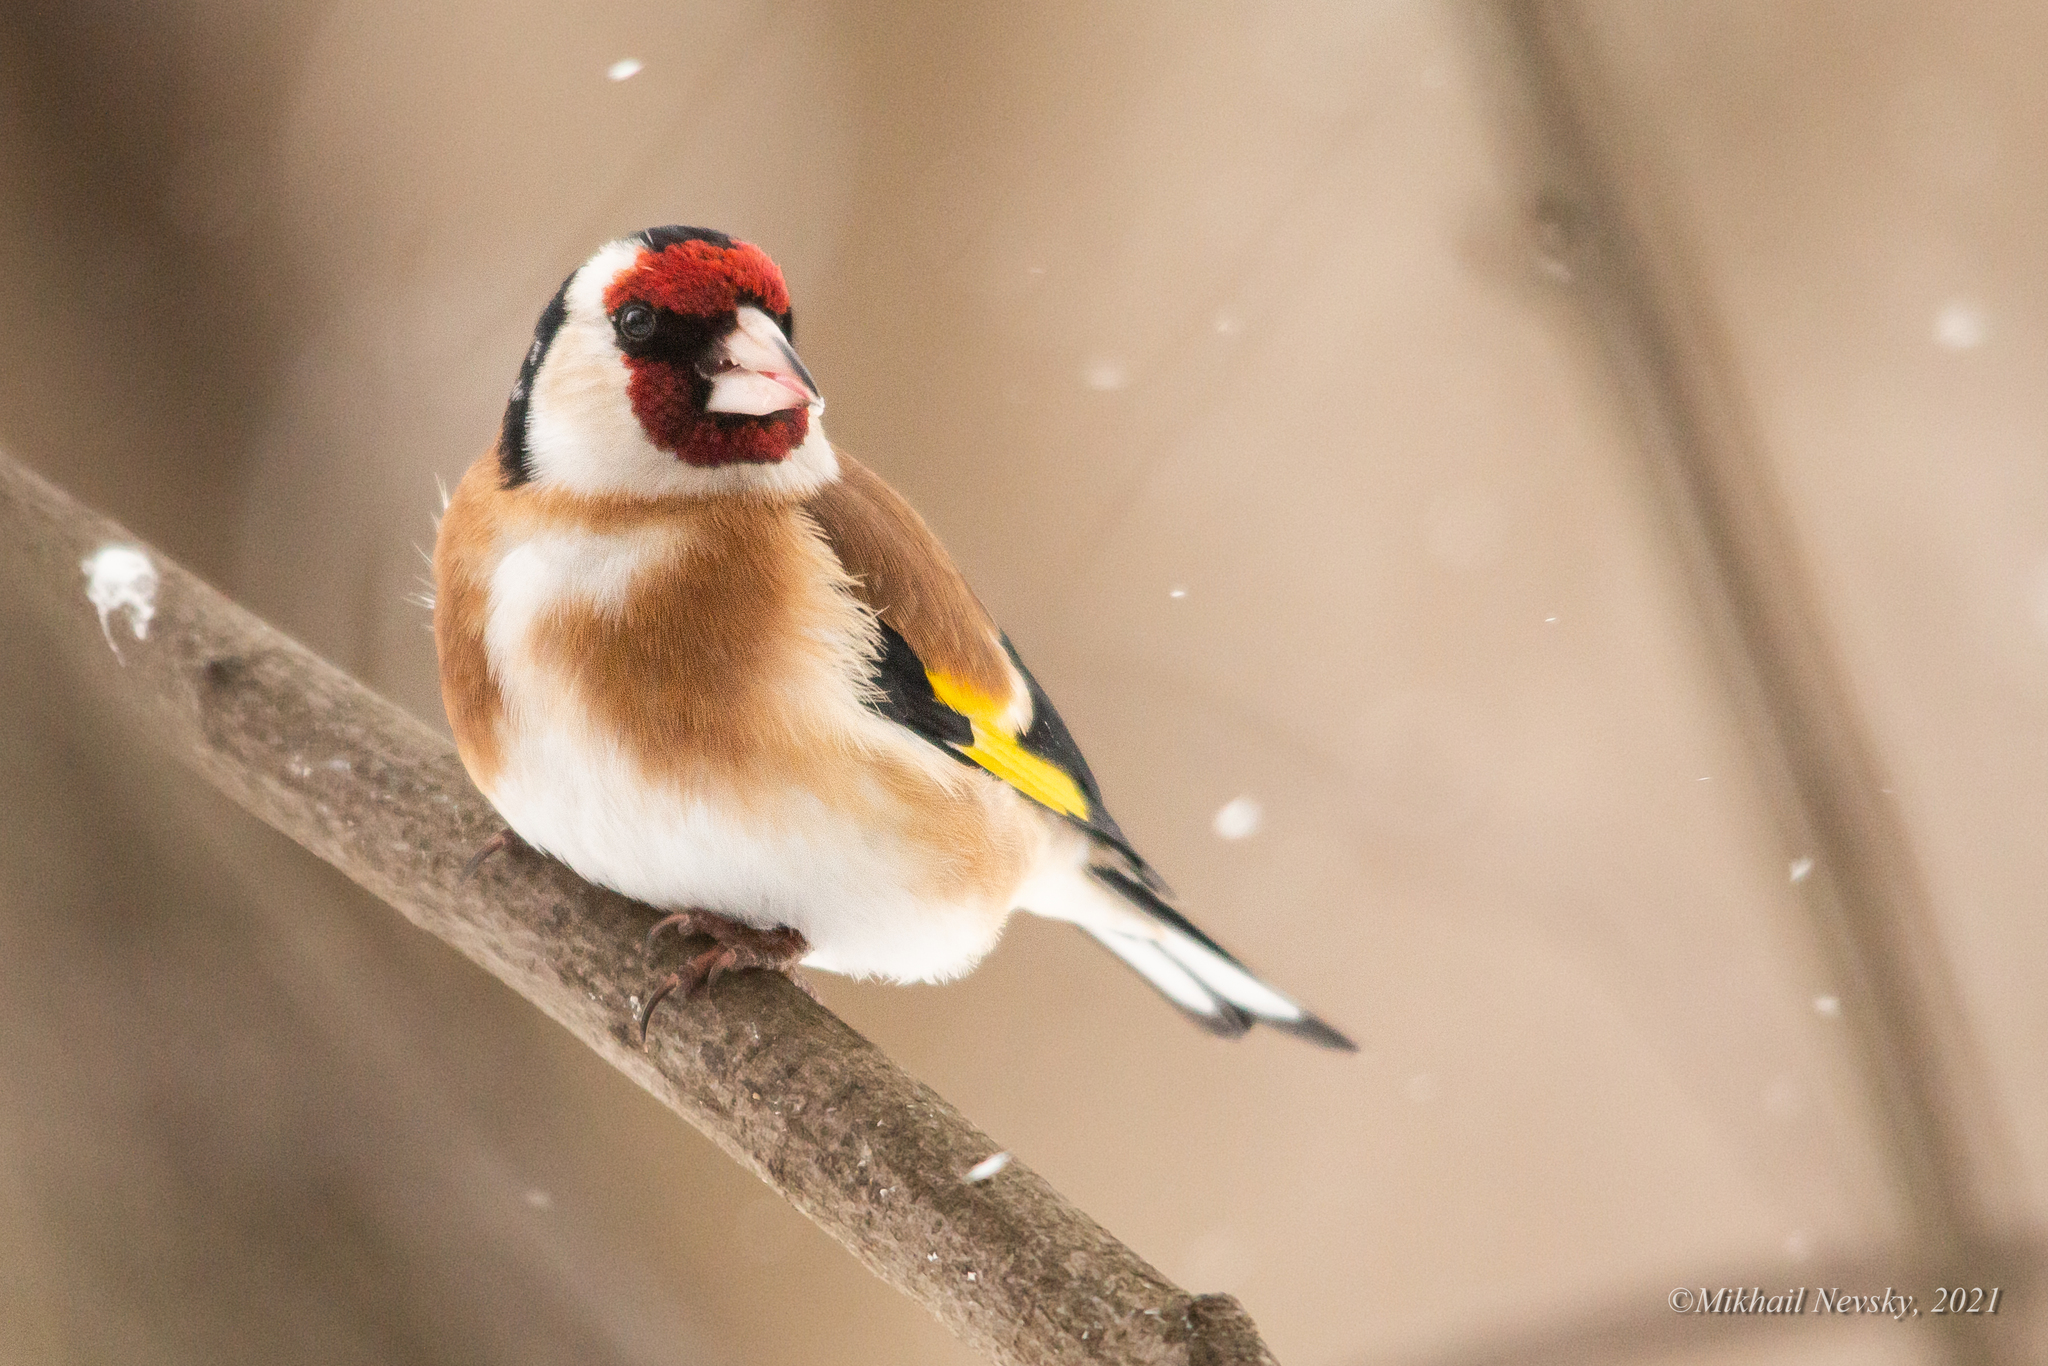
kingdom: Animalia
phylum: Chordata
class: Aves
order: Passeriformes
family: Fringillidae
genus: Carduelis
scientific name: Carduelis carduelis
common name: European goldfinch
